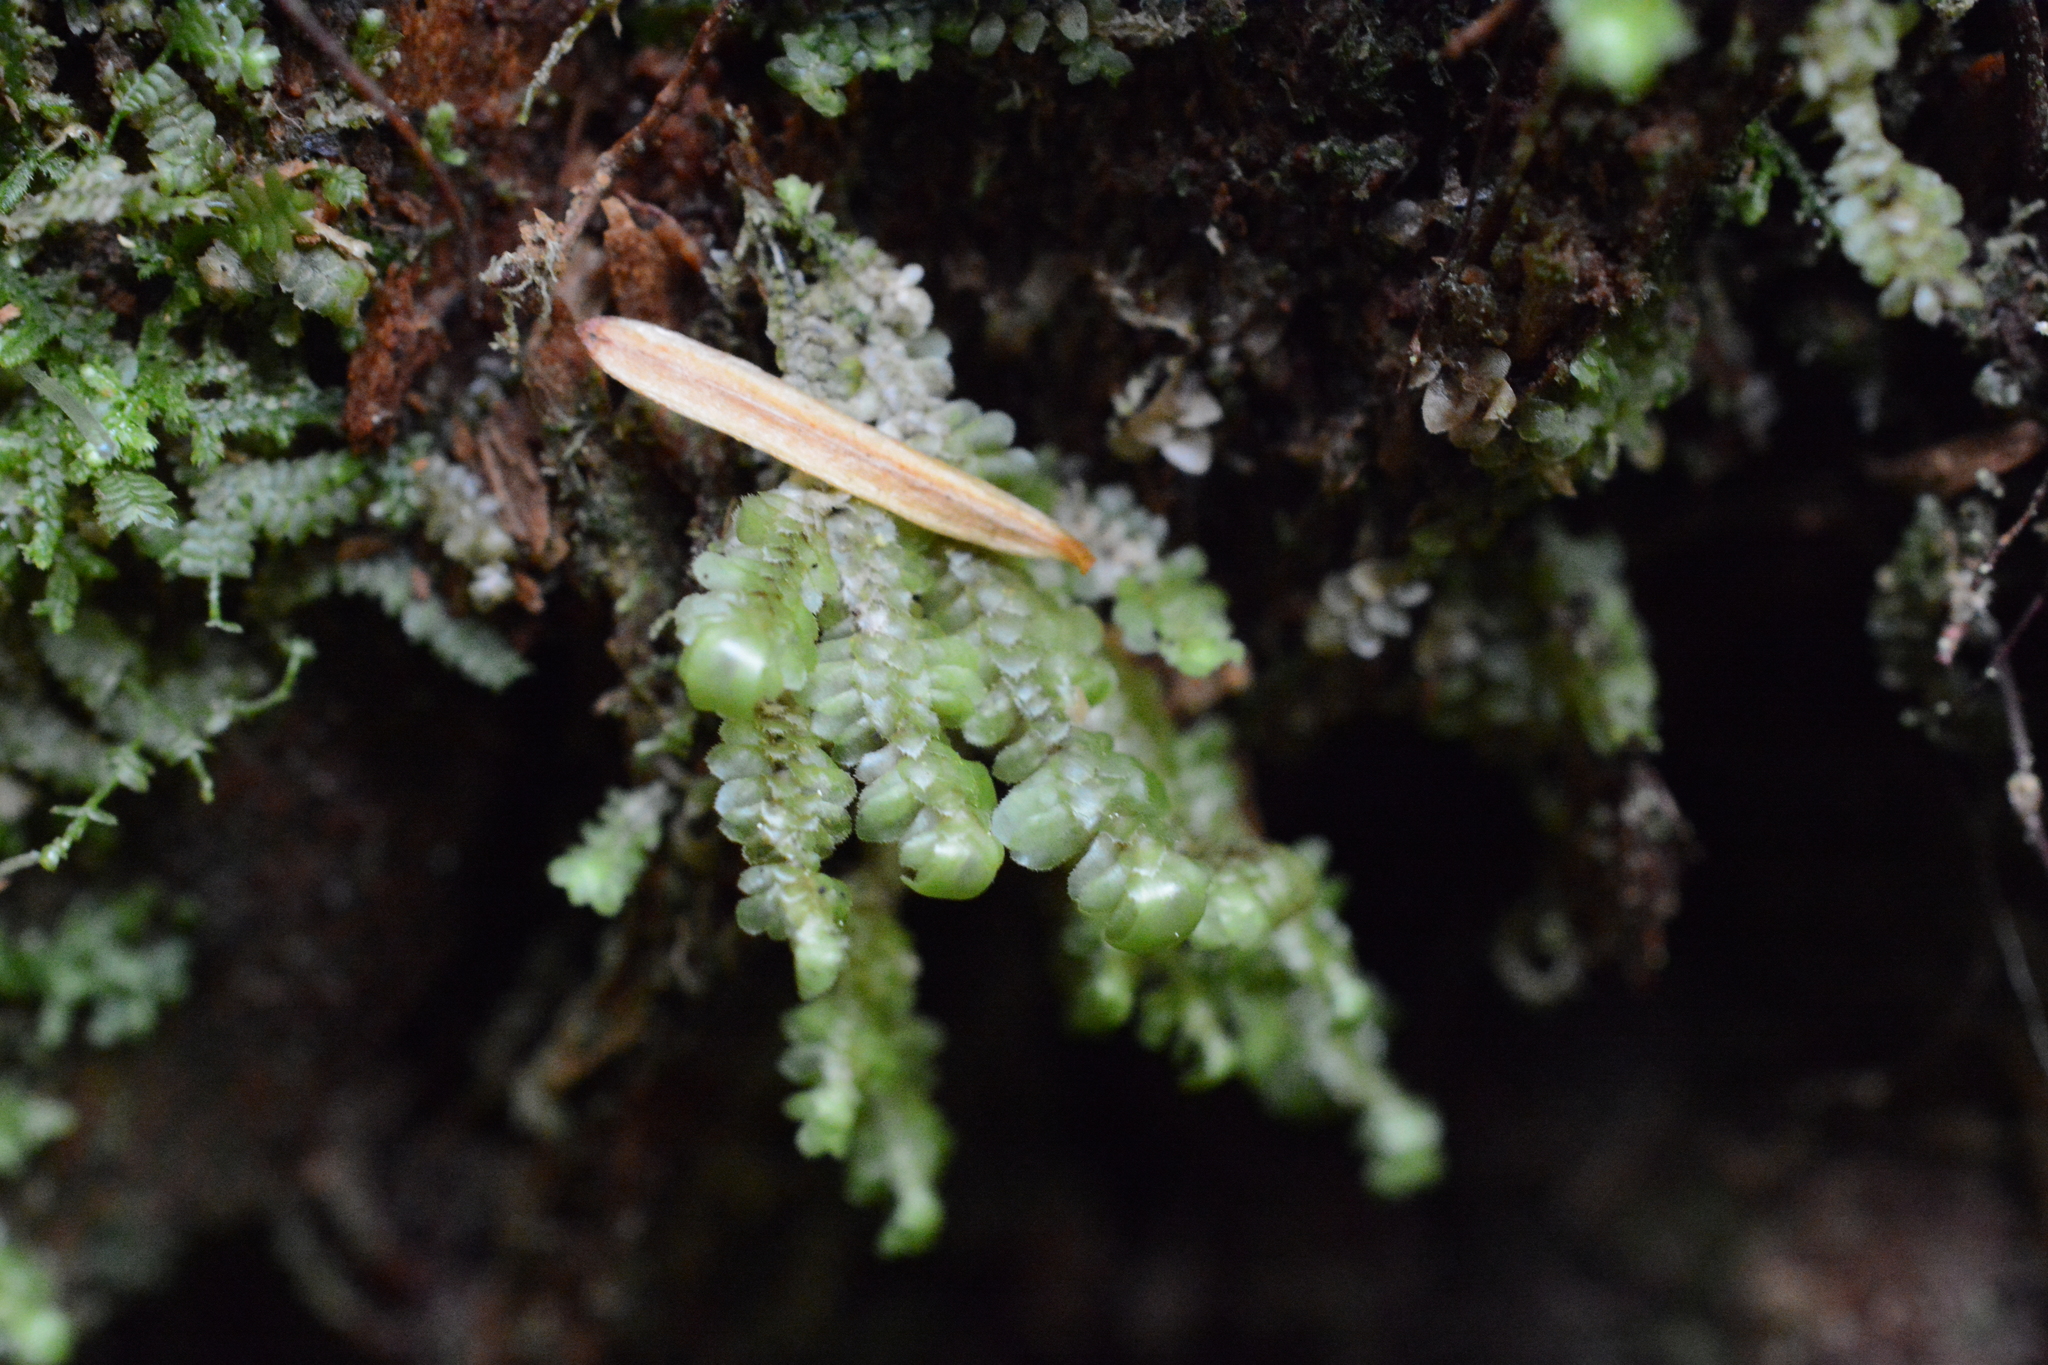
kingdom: Plantae
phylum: Marchantiophyta
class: Jungermanniopsida
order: Jungermanniales
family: Scapaniaceae
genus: Scapania
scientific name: Scapania bolanderi
